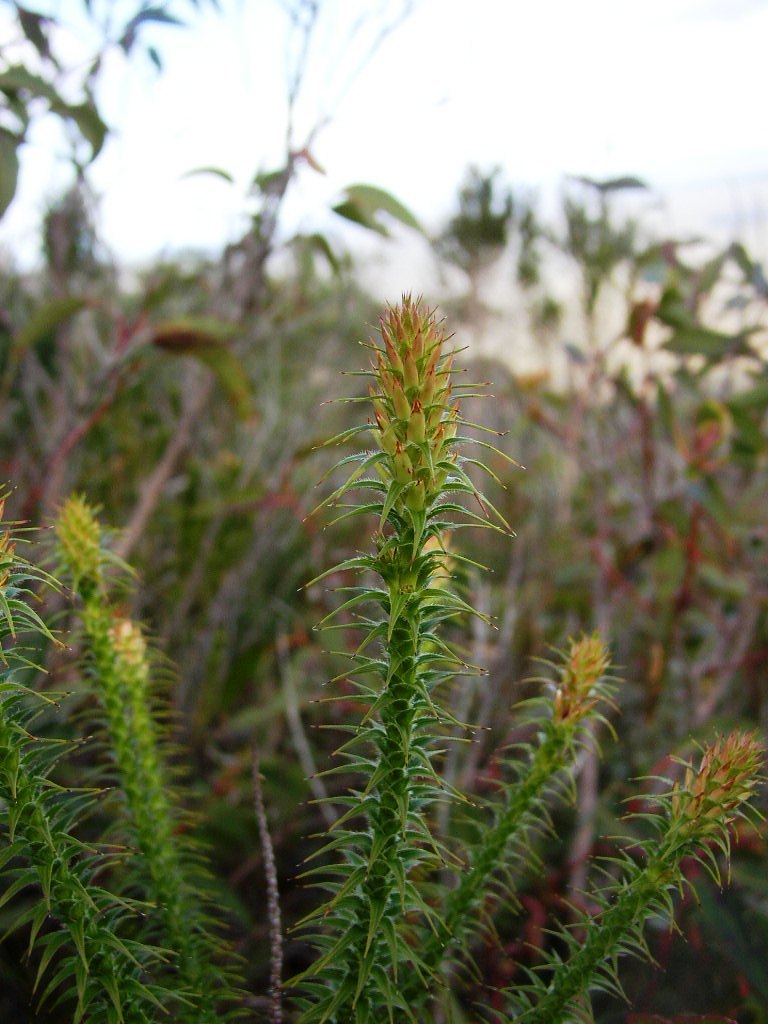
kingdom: Plantae
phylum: Tracheophyta
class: Magnoliopsida
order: Ericales
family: Ericaceae
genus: Andersonia
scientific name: Andersonia echinocephala
